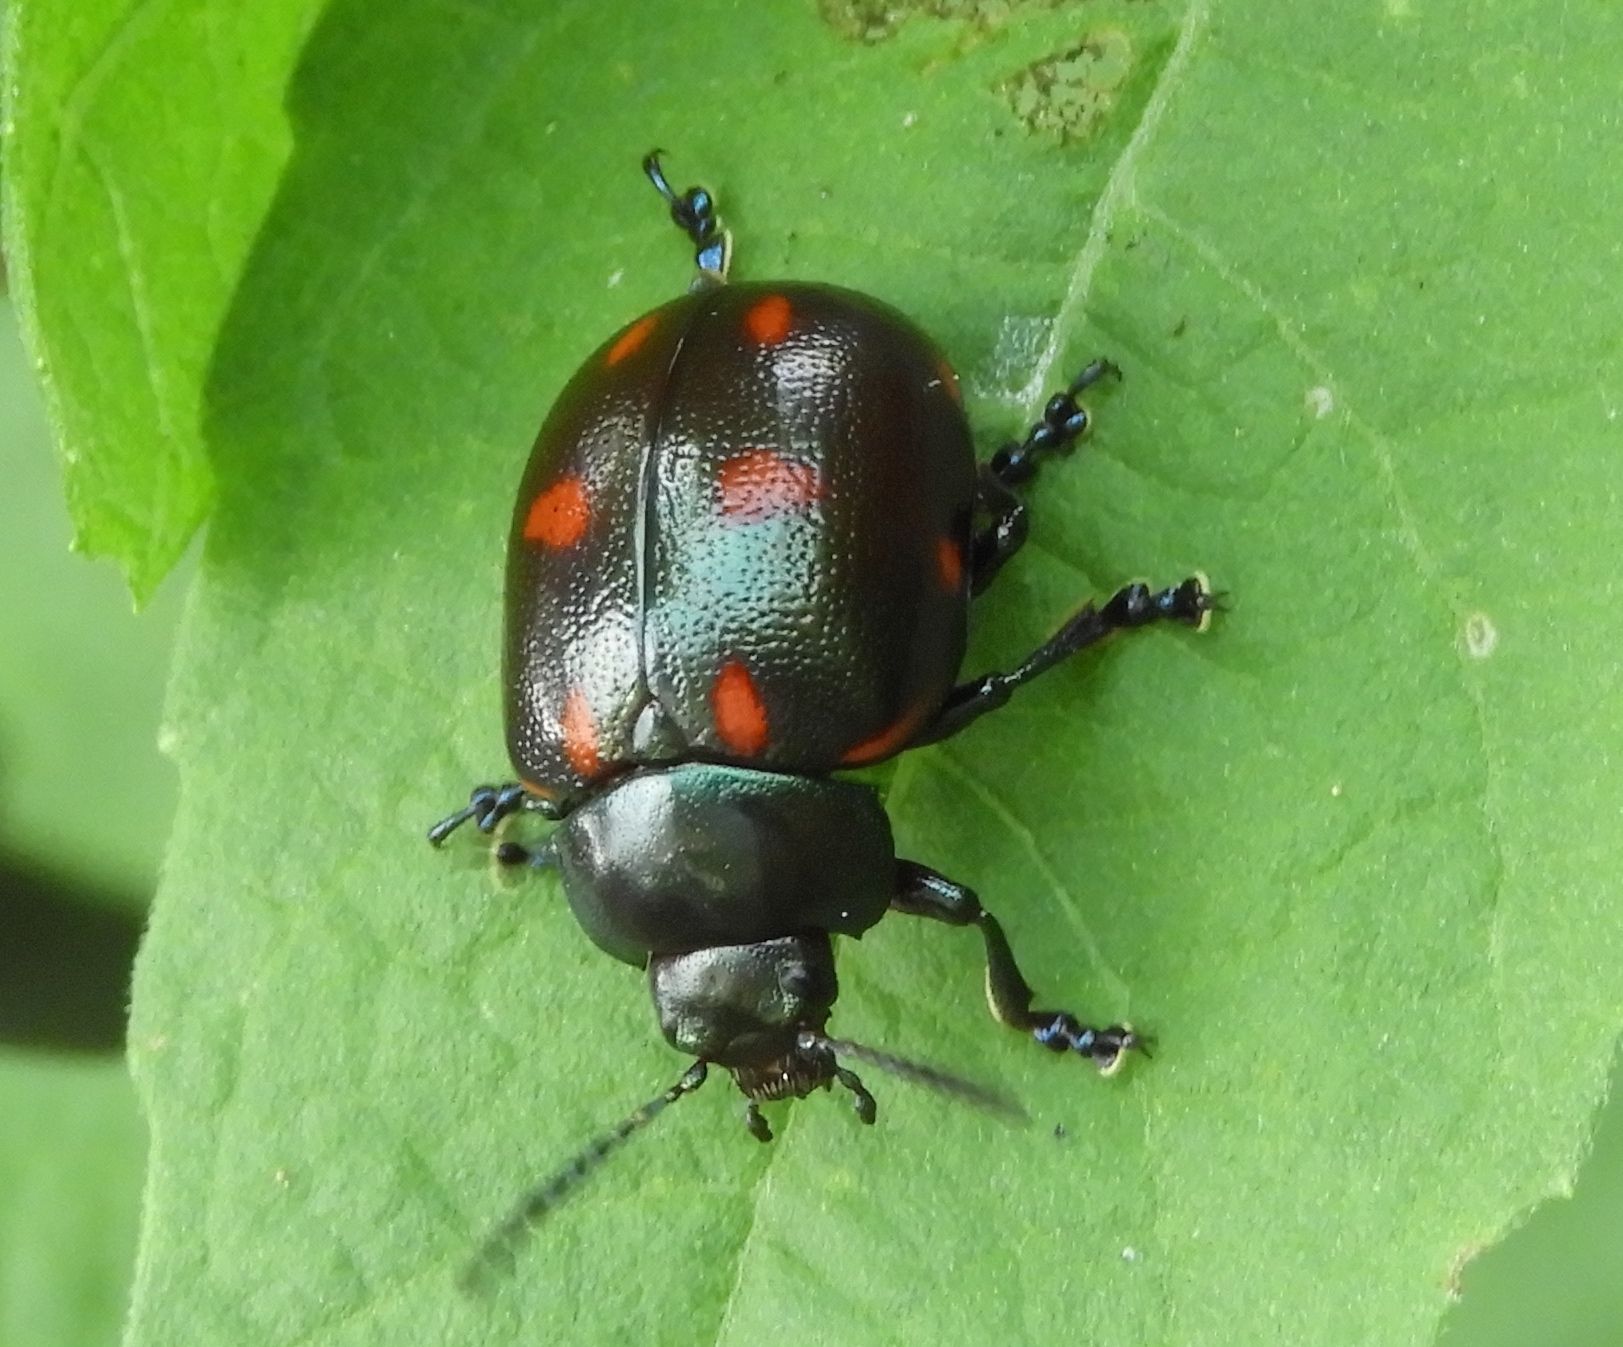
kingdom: Animalia
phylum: Arthropoda
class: Insecta
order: Coleoptera
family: Chrysomelidae
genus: Leptinotarsa
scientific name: Leptinotarsa behrensi
